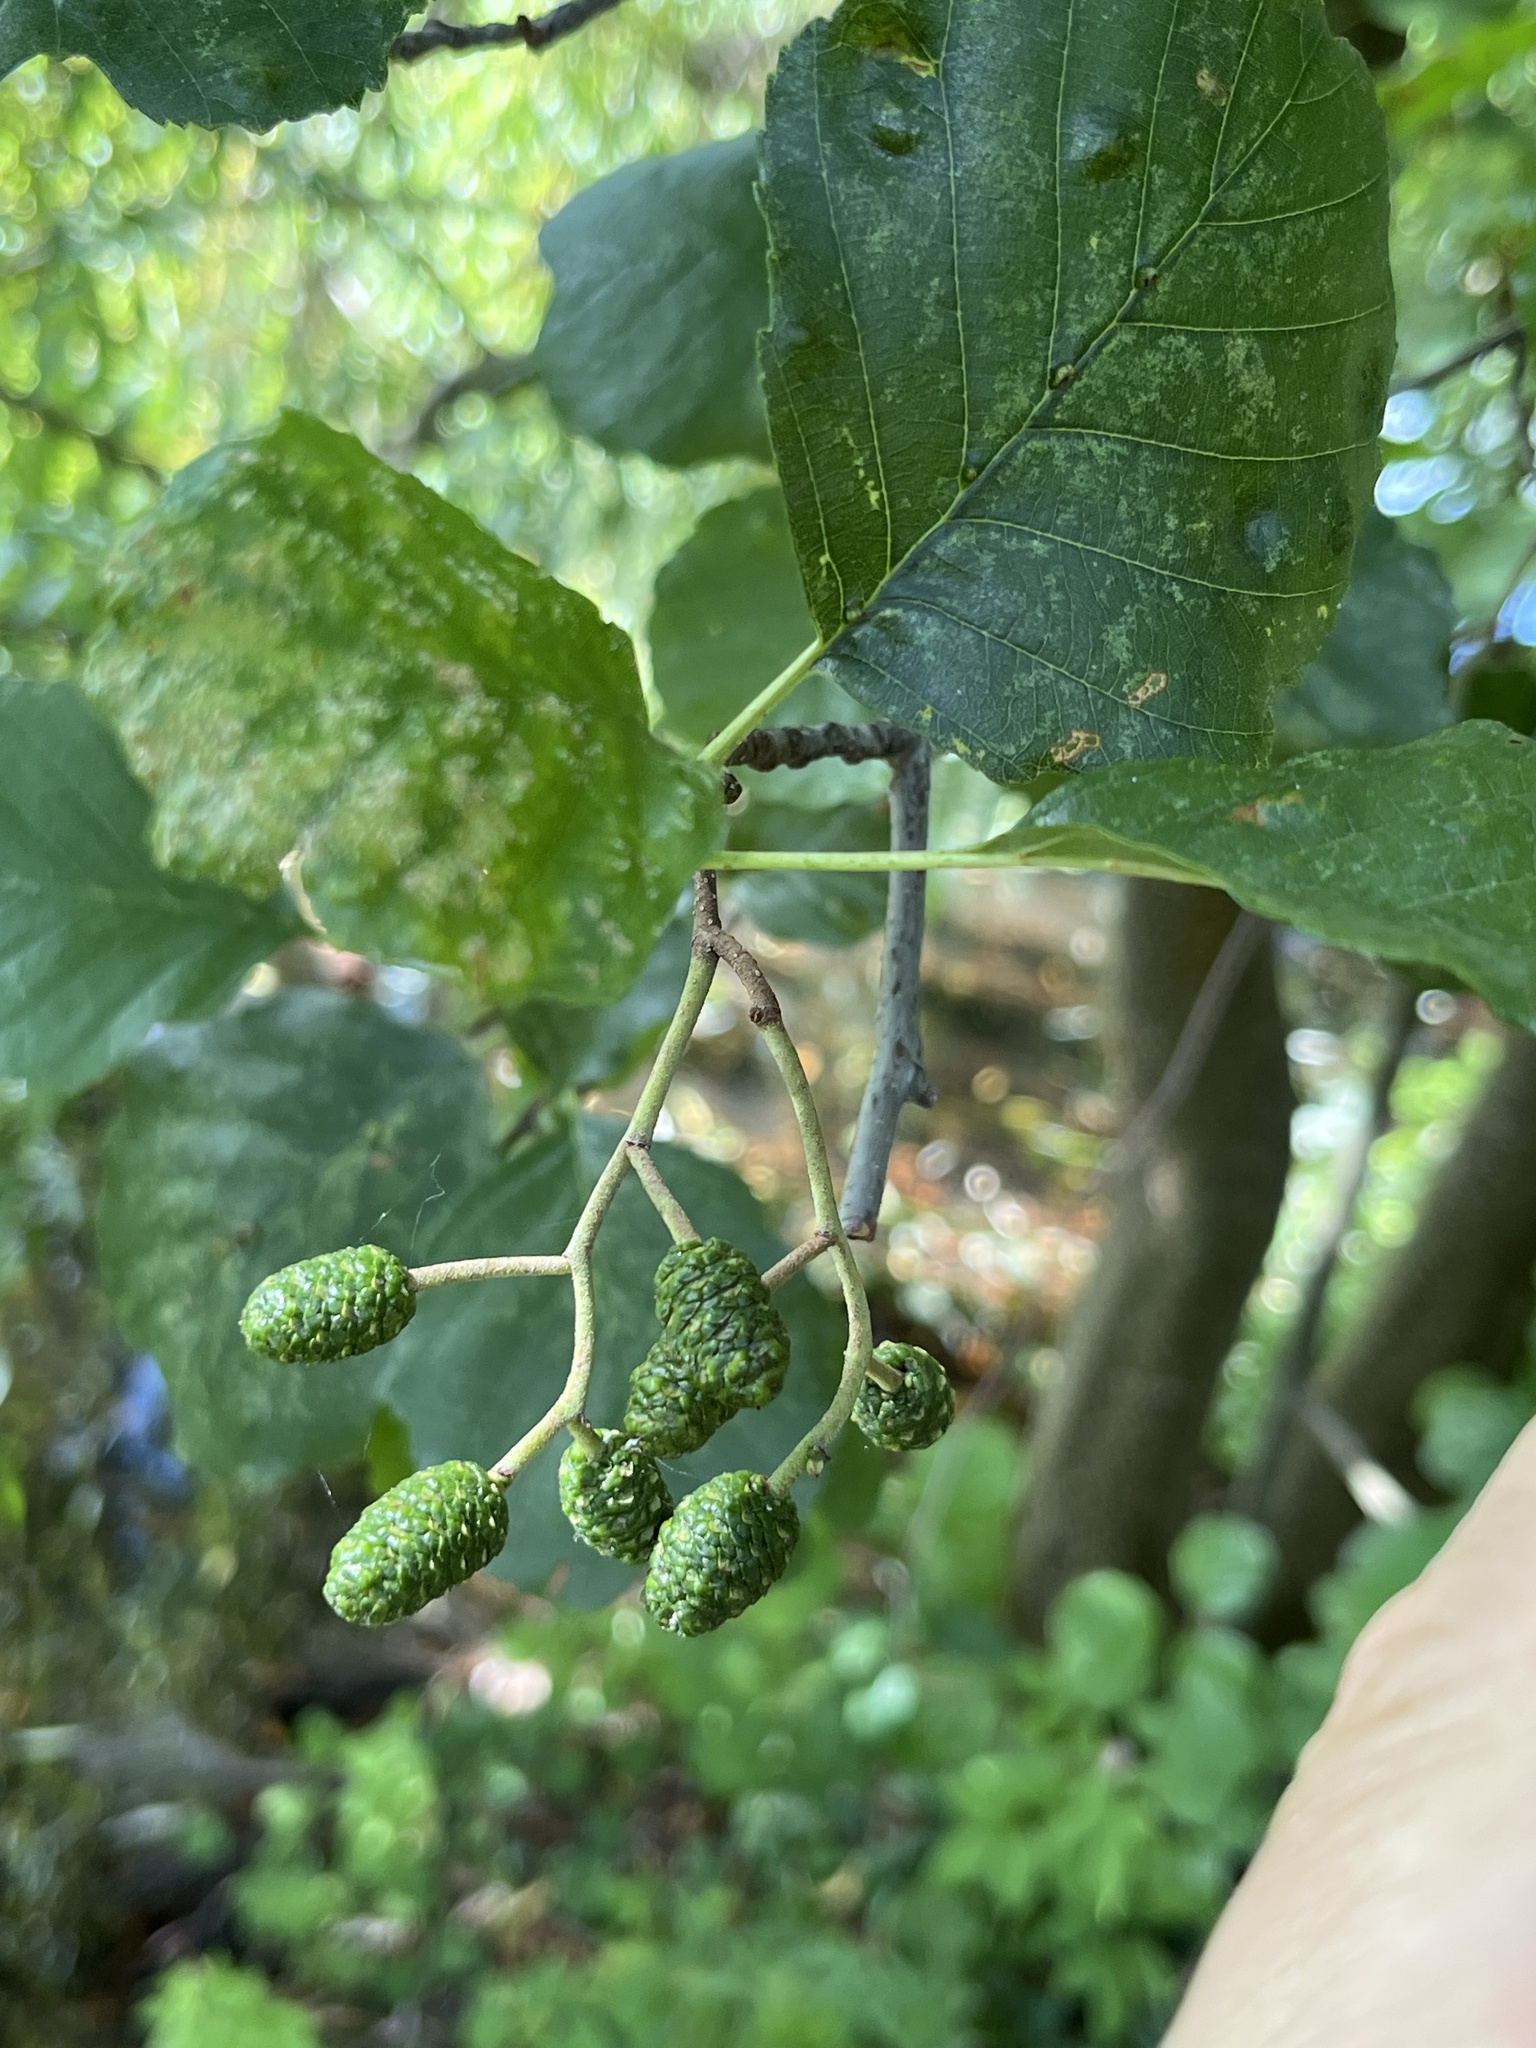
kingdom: Plantae
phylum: Tracheophyta
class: Magnoliopsida
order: Fagales
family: Betulaceae
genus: Alnus
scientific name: Alnus glutinosa
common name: Black alder
